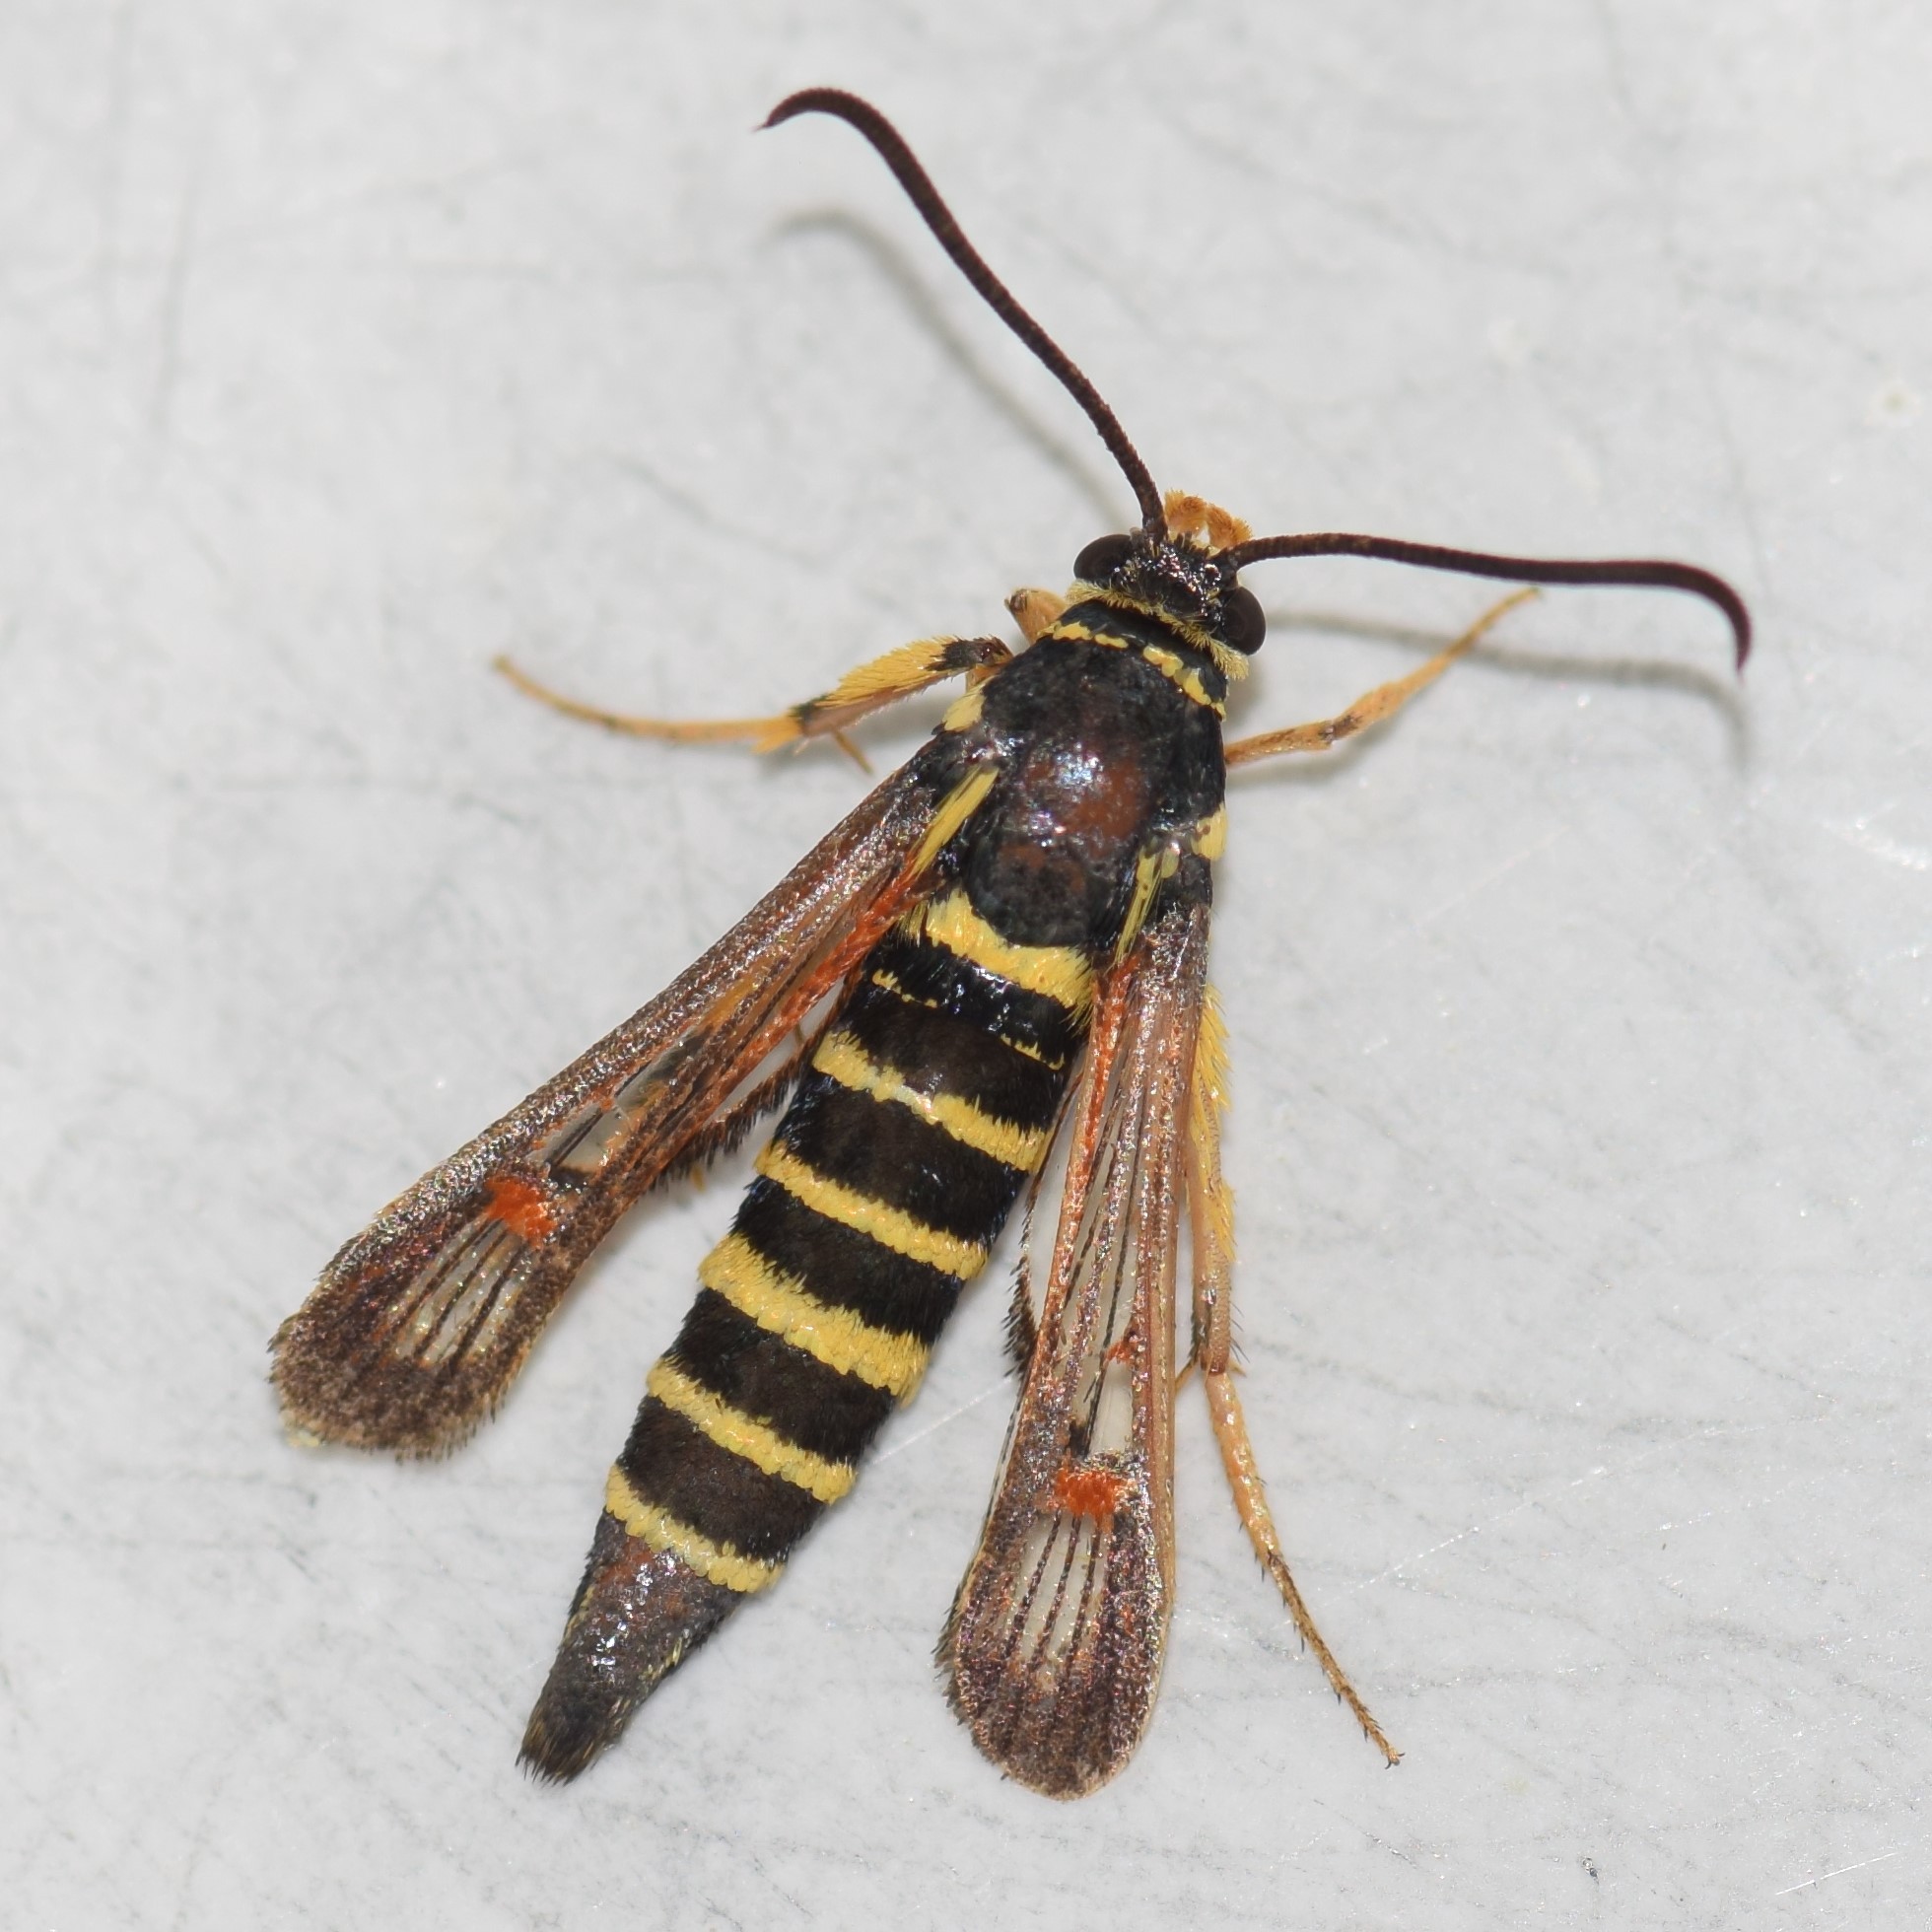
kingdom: Animalia
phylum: Arthropoda
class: Insecta
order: Lepidoptera
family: Sesiidae
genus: Synanthedon
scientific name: Synanthedon rileyana
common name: Riley's clearwing moth
